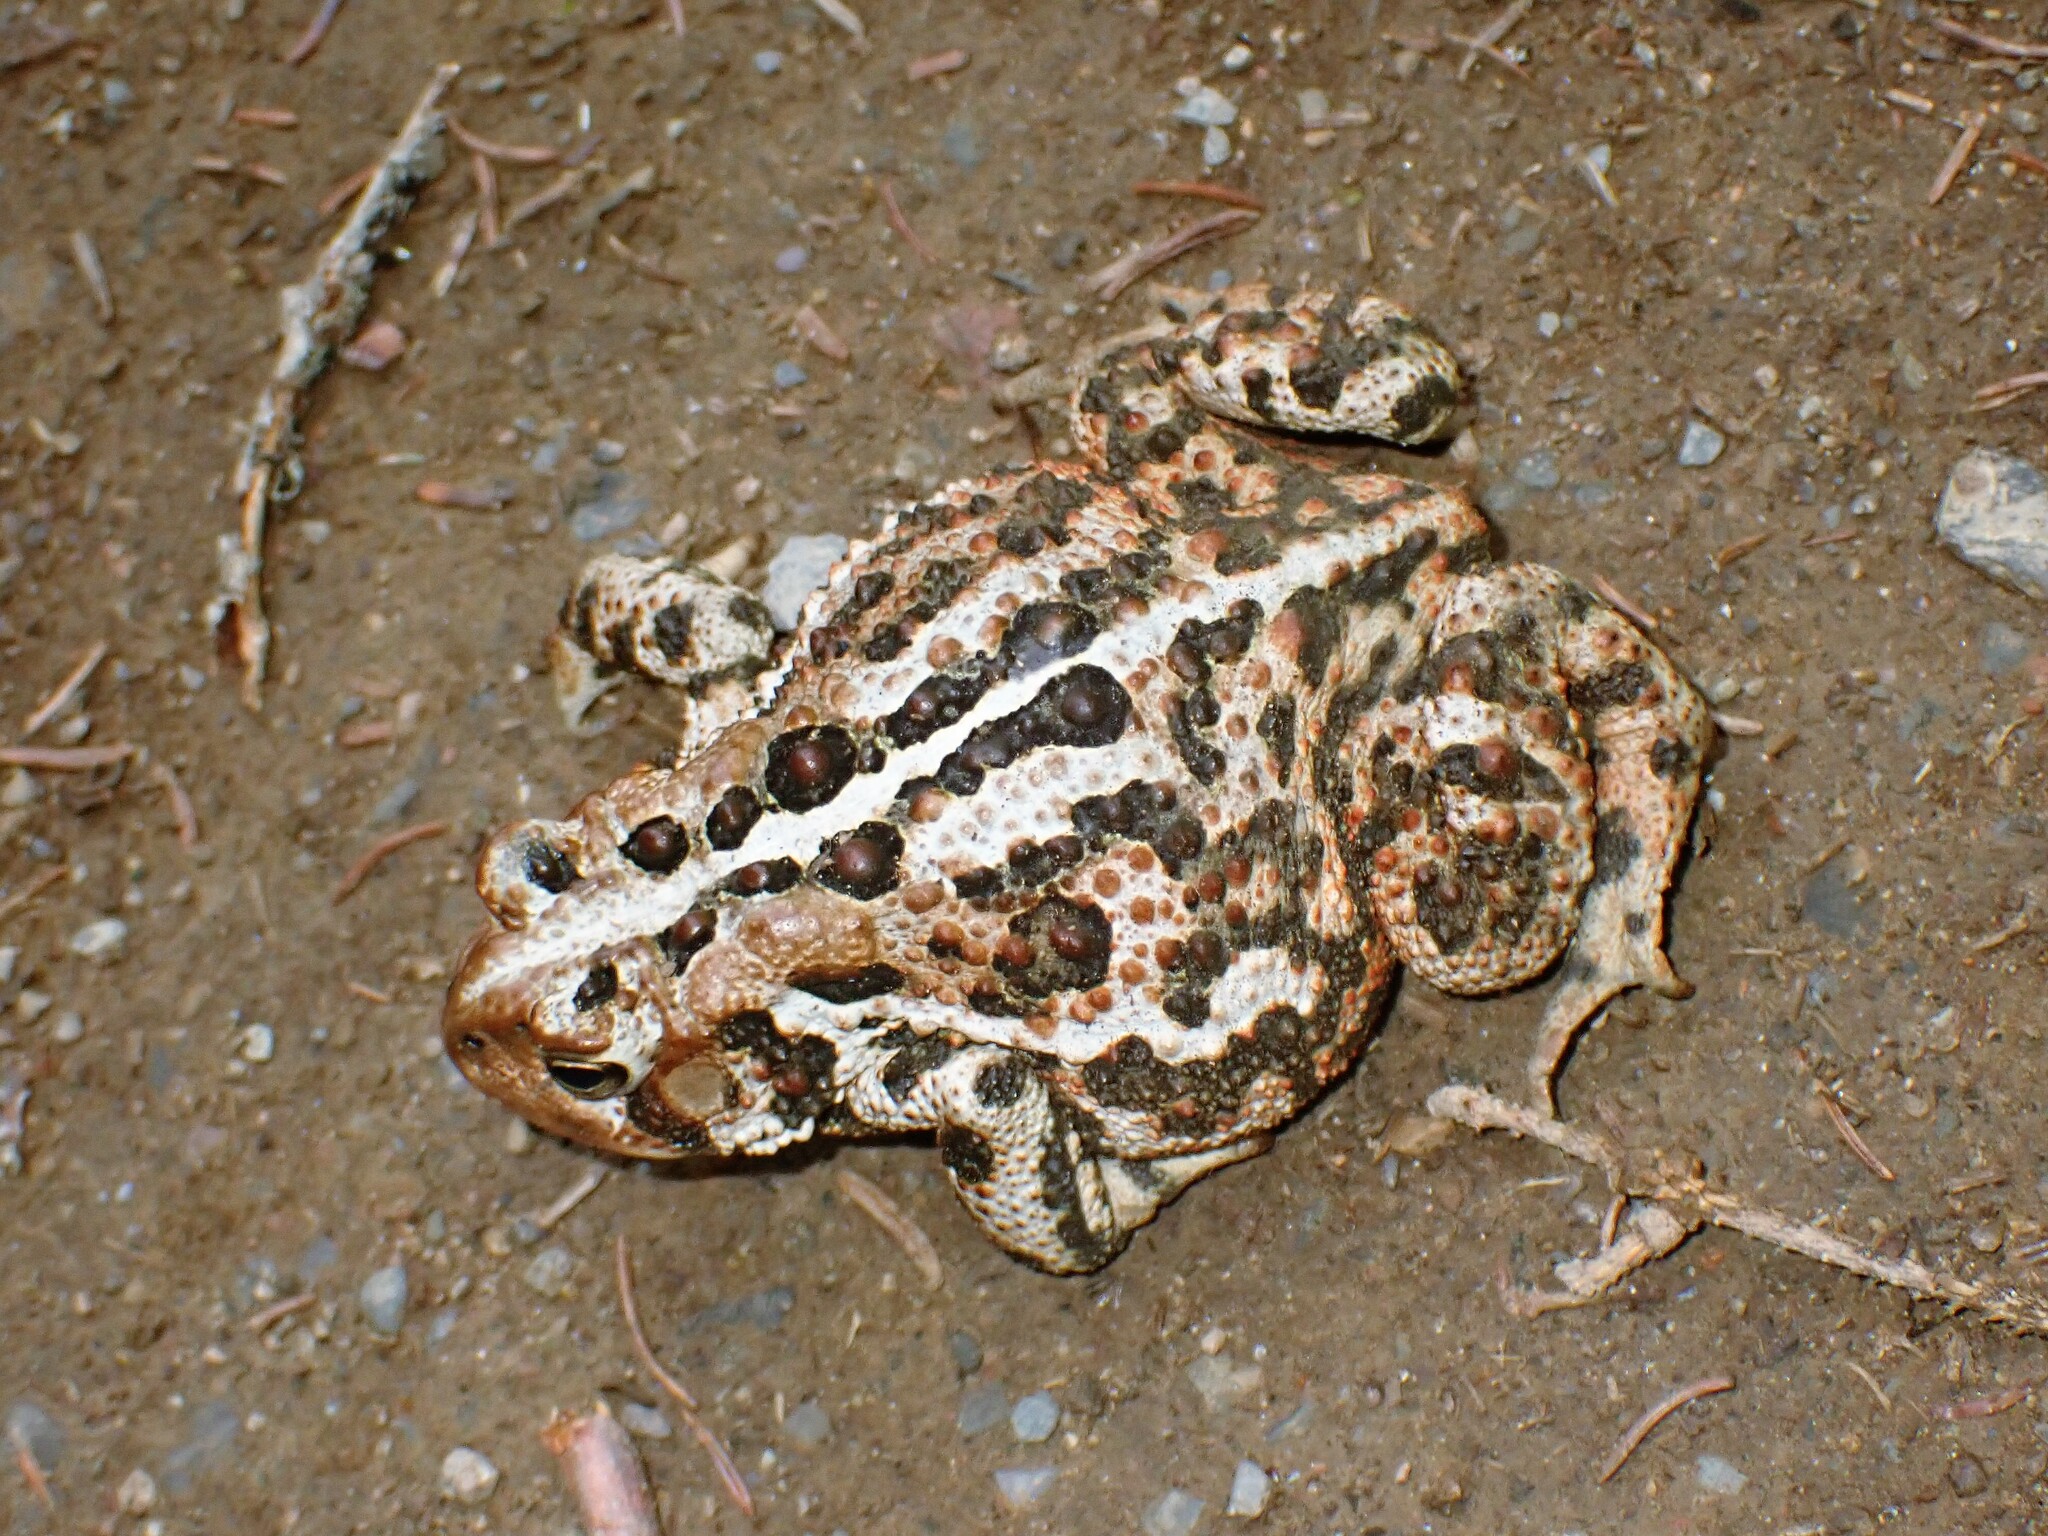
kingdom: Animalia
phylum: Chordata
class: Amphibia
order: Anura
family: Bufonidae
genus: Anaxyrus
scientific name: Anaxyrus americanus
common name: American toad
